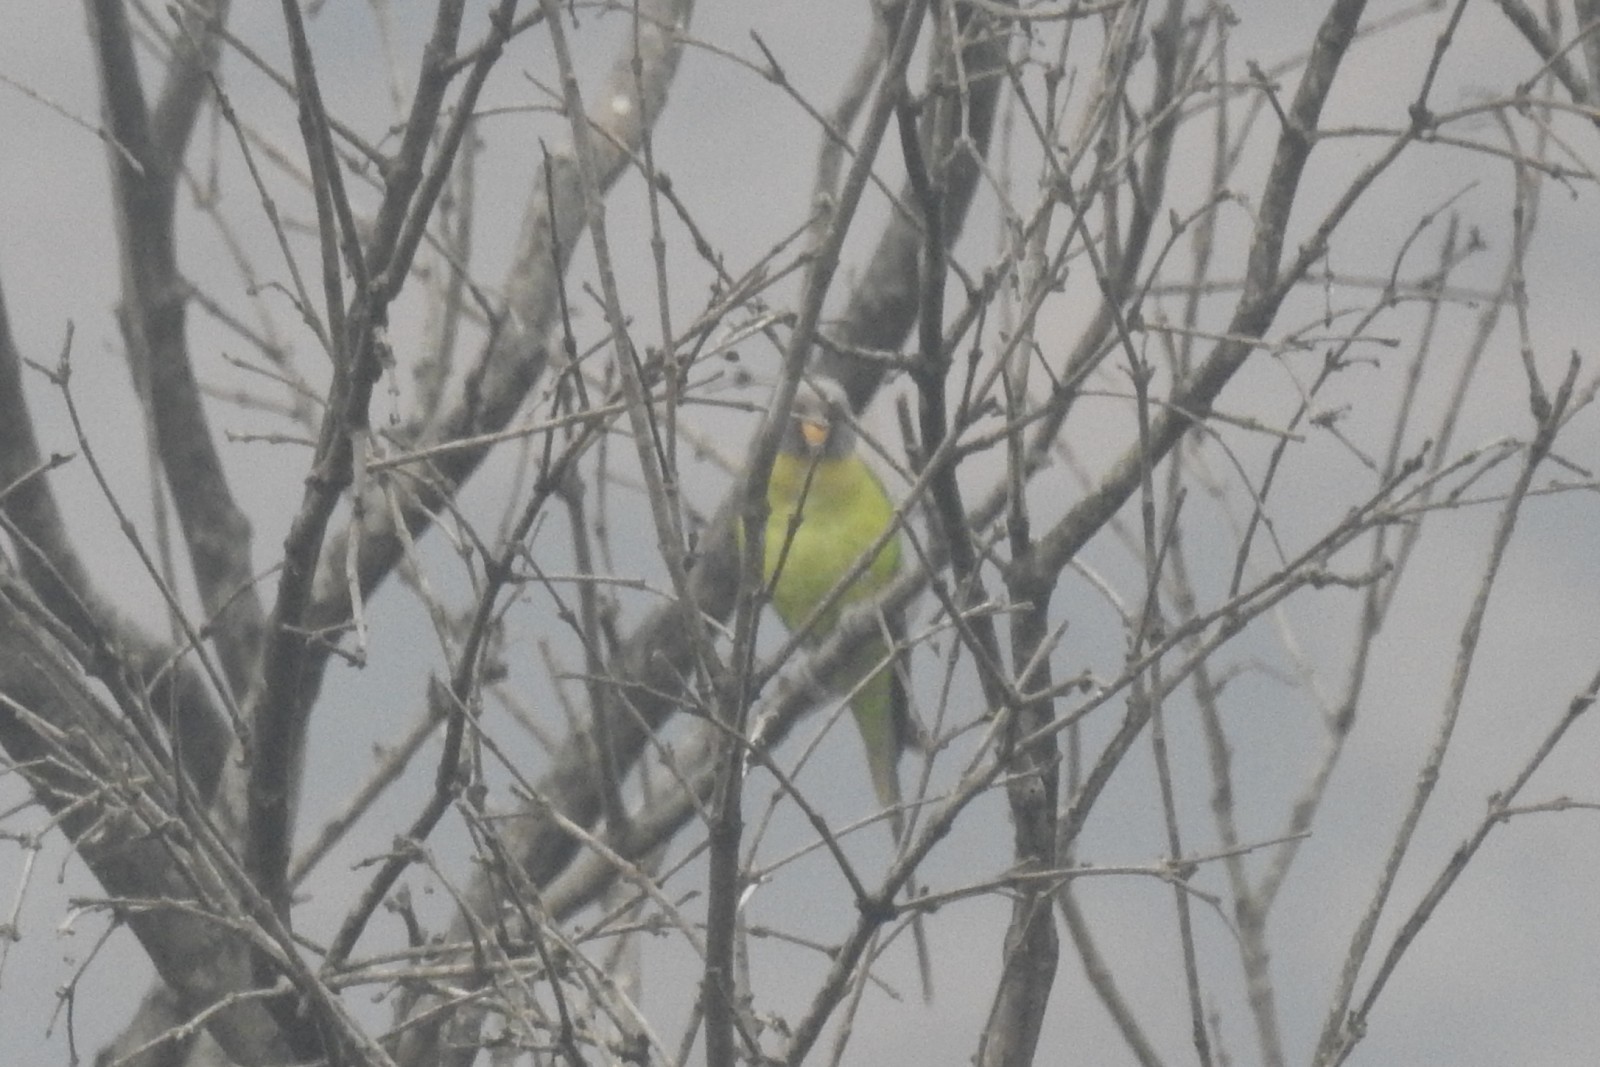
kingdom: Animalia
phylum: Chordata
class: Aves
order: Psittaciformes
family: Psittacidae
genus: Psittacula
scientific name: Psittacula cyanocephala
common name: Plum-headed parakeet
